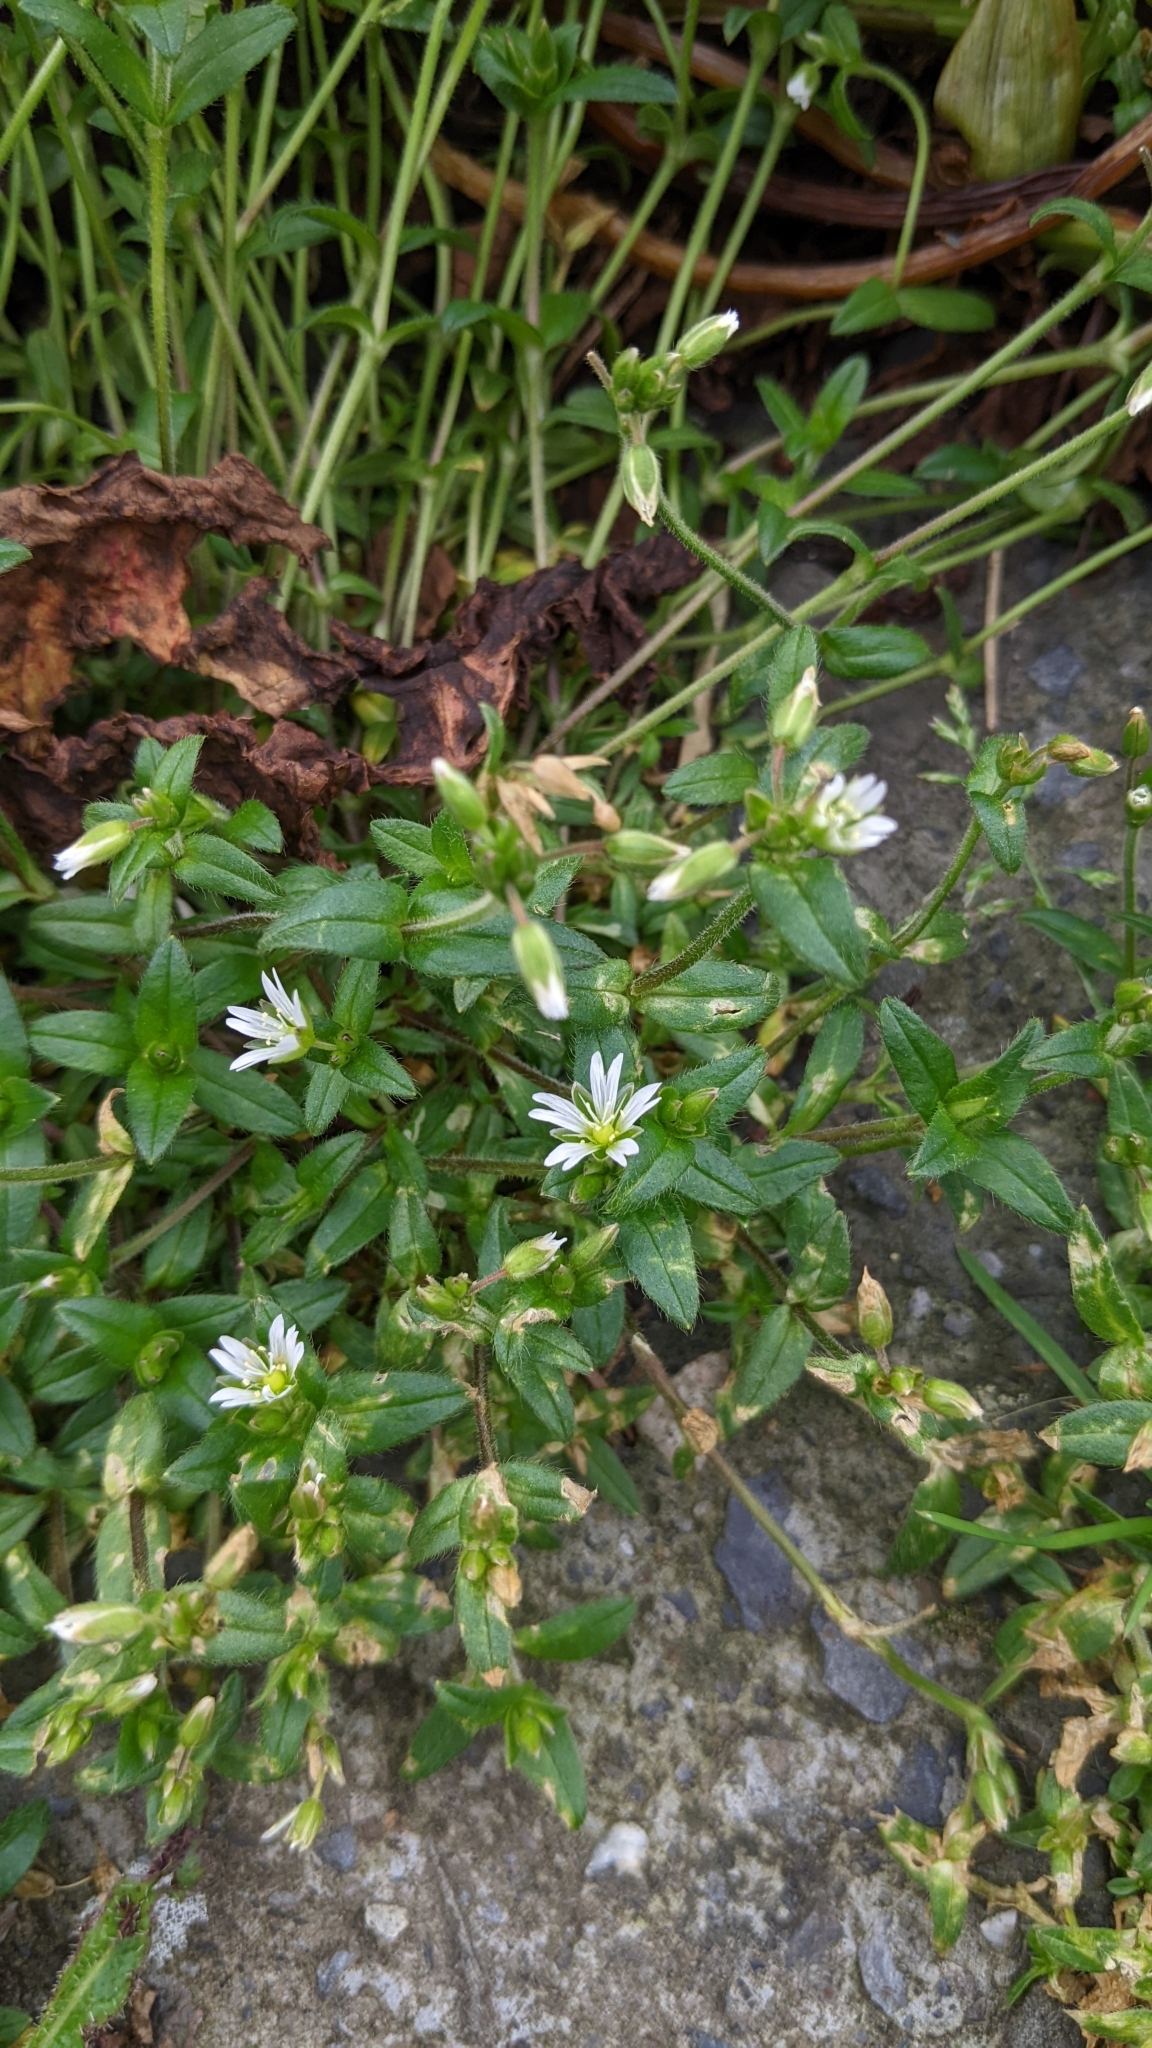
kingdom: Plantae
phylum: Tracheophyta
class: Magnoliopsida
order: Caryophyllales
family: Caryophyllaceae
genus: Cerastium
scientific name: Cerastium morrisonense
